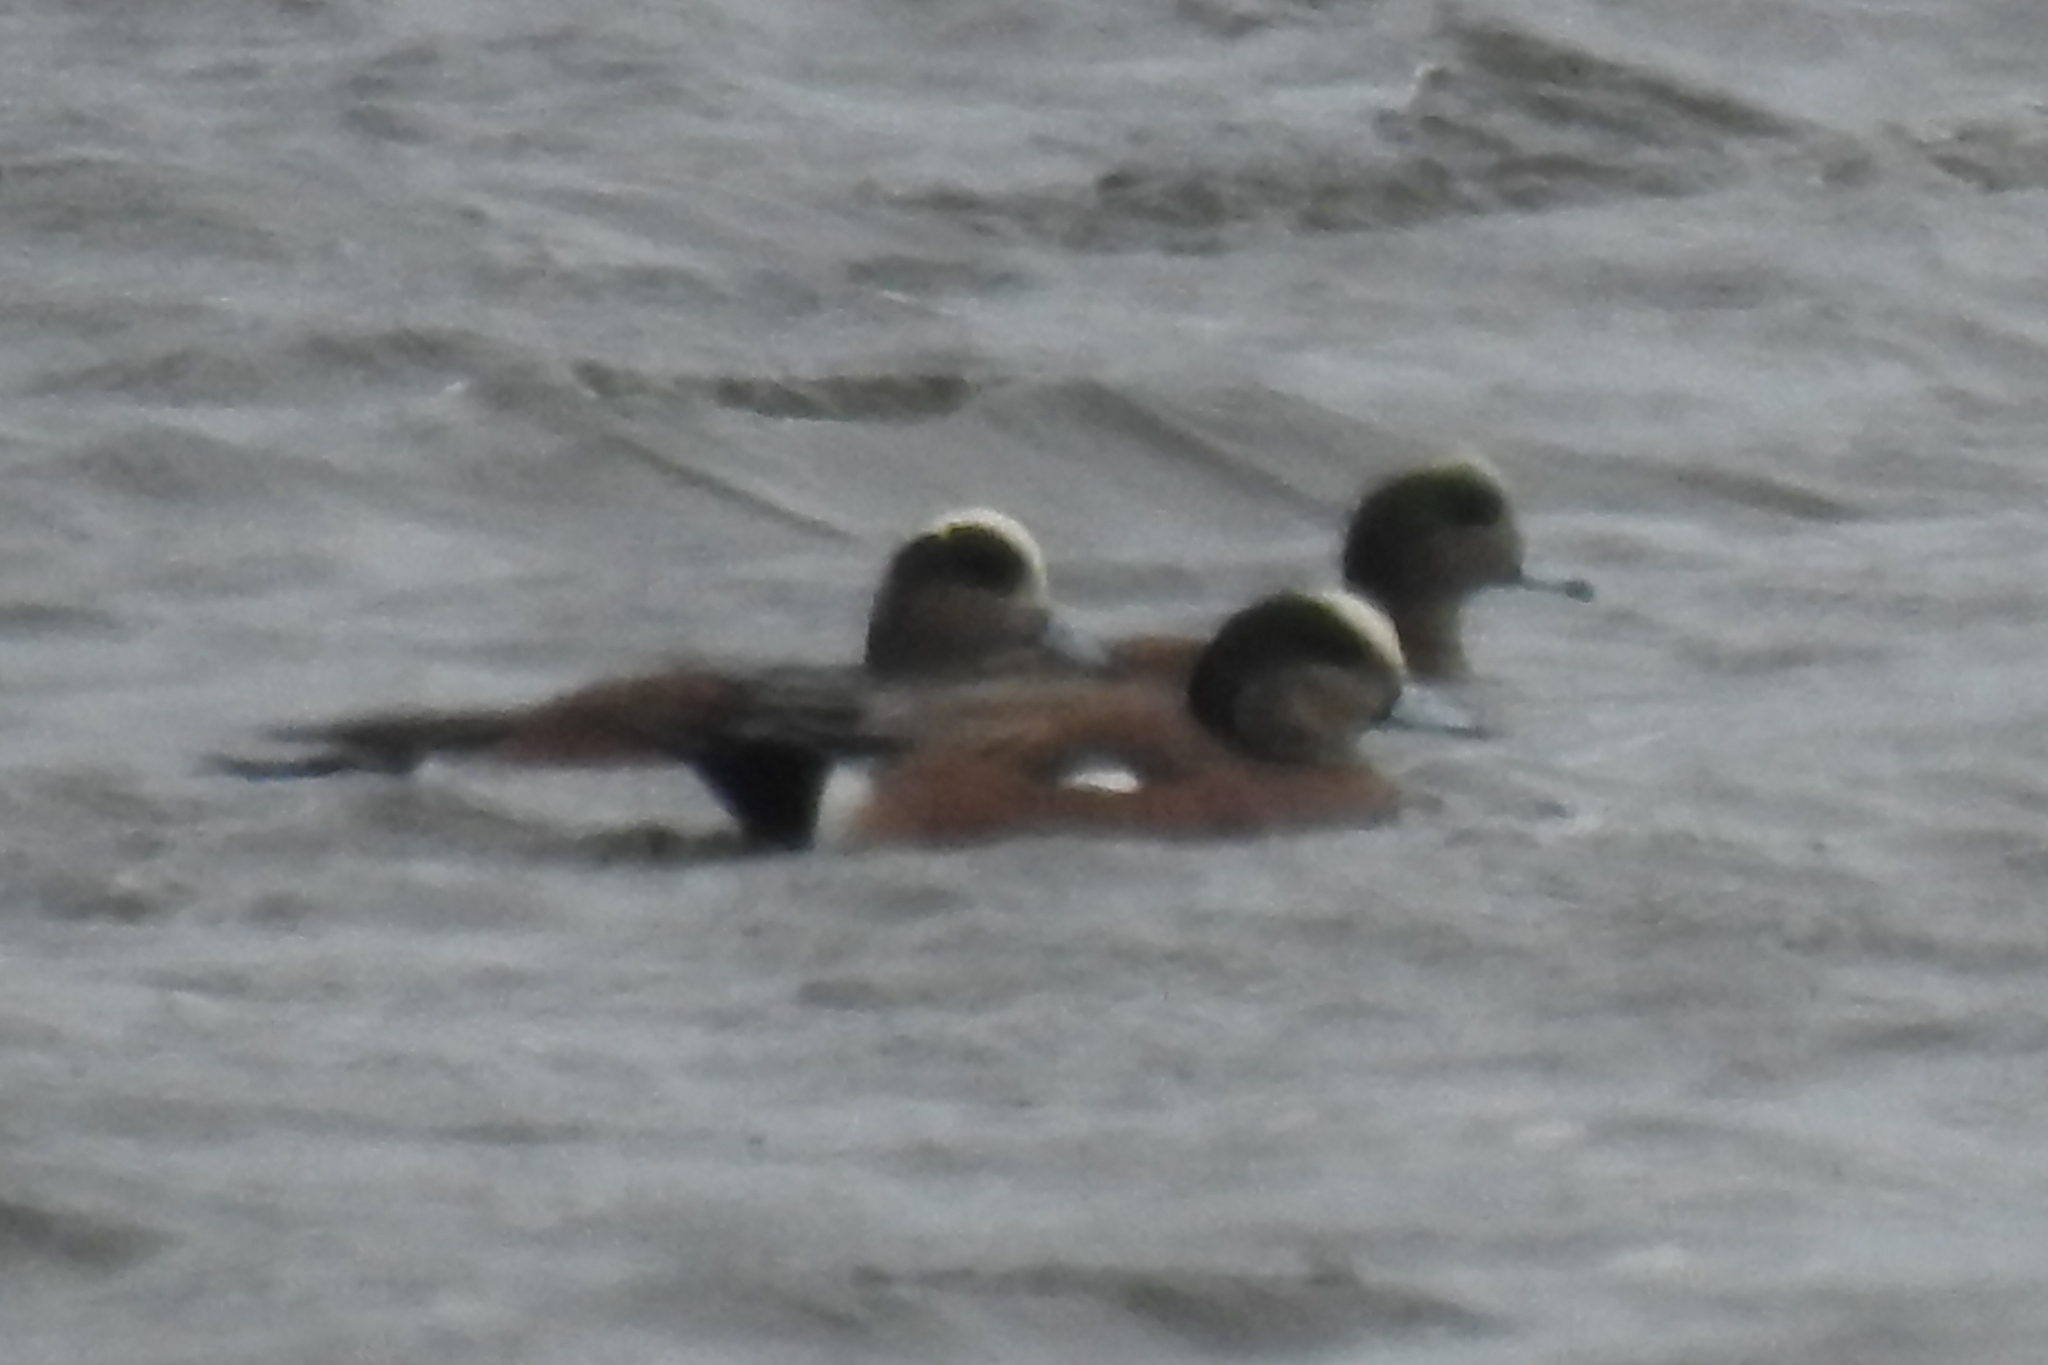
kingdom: Animalia
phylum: Chordata
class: Aves
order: Anseriformes
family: Anatidae
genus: Mareca
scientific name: Mareca americana
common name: American wigeon
